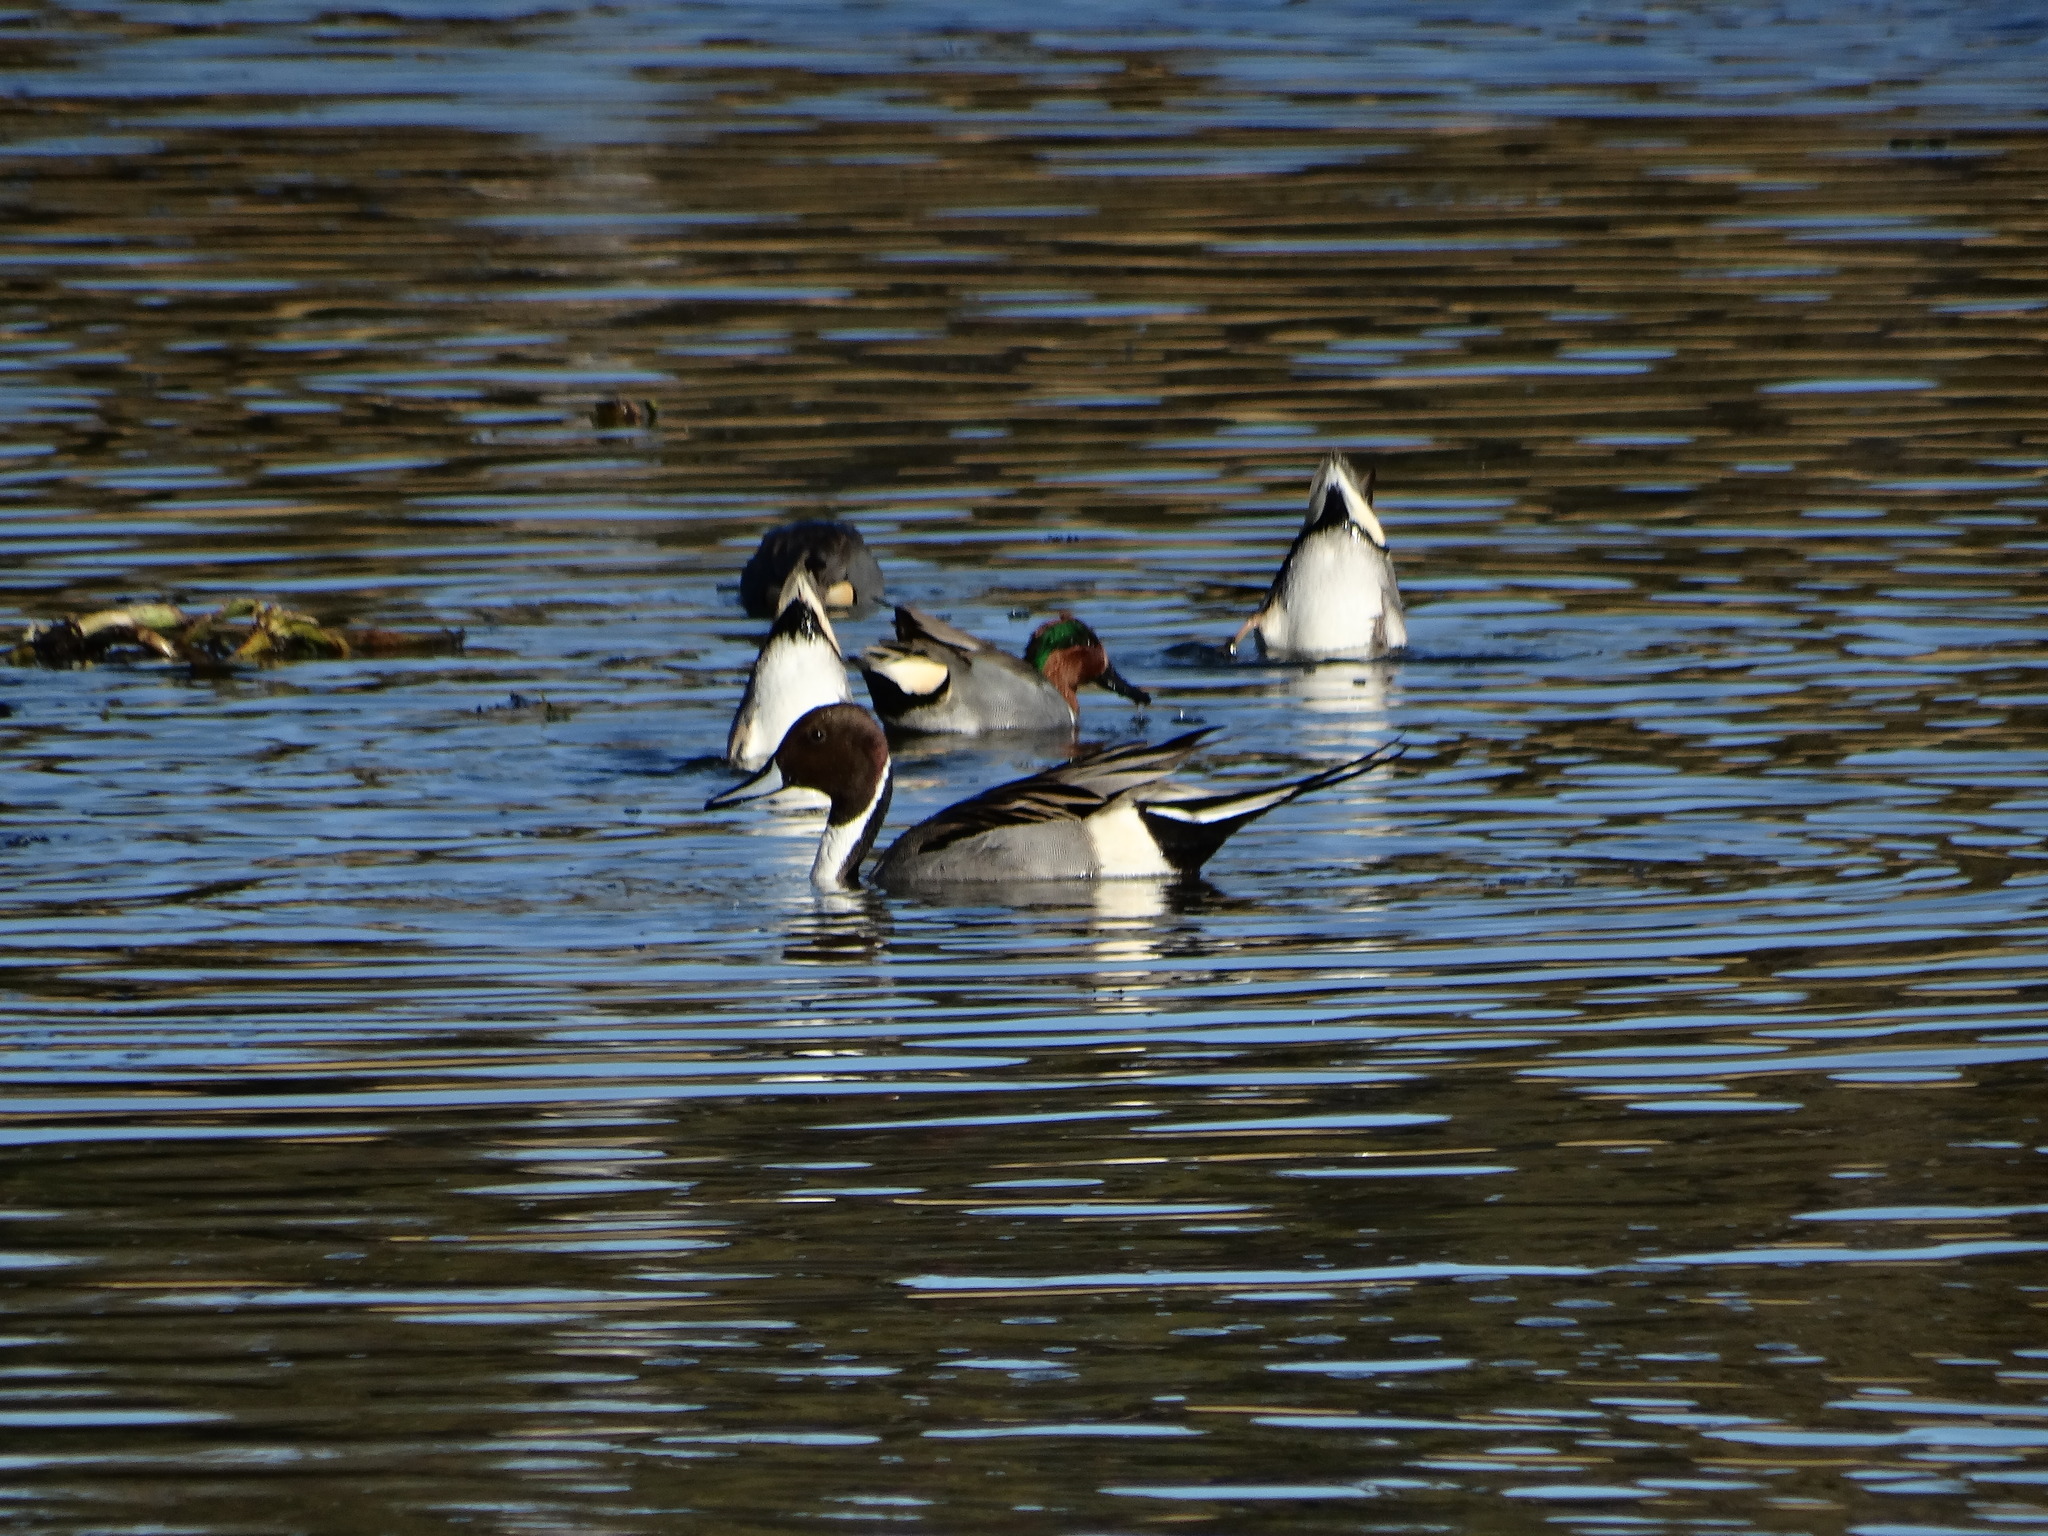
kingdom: Animalia
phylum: Chordata
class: Aves
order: Anseriformes
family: Anatidae
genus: Anas
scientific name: Anas acuta
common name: Northern pintail
